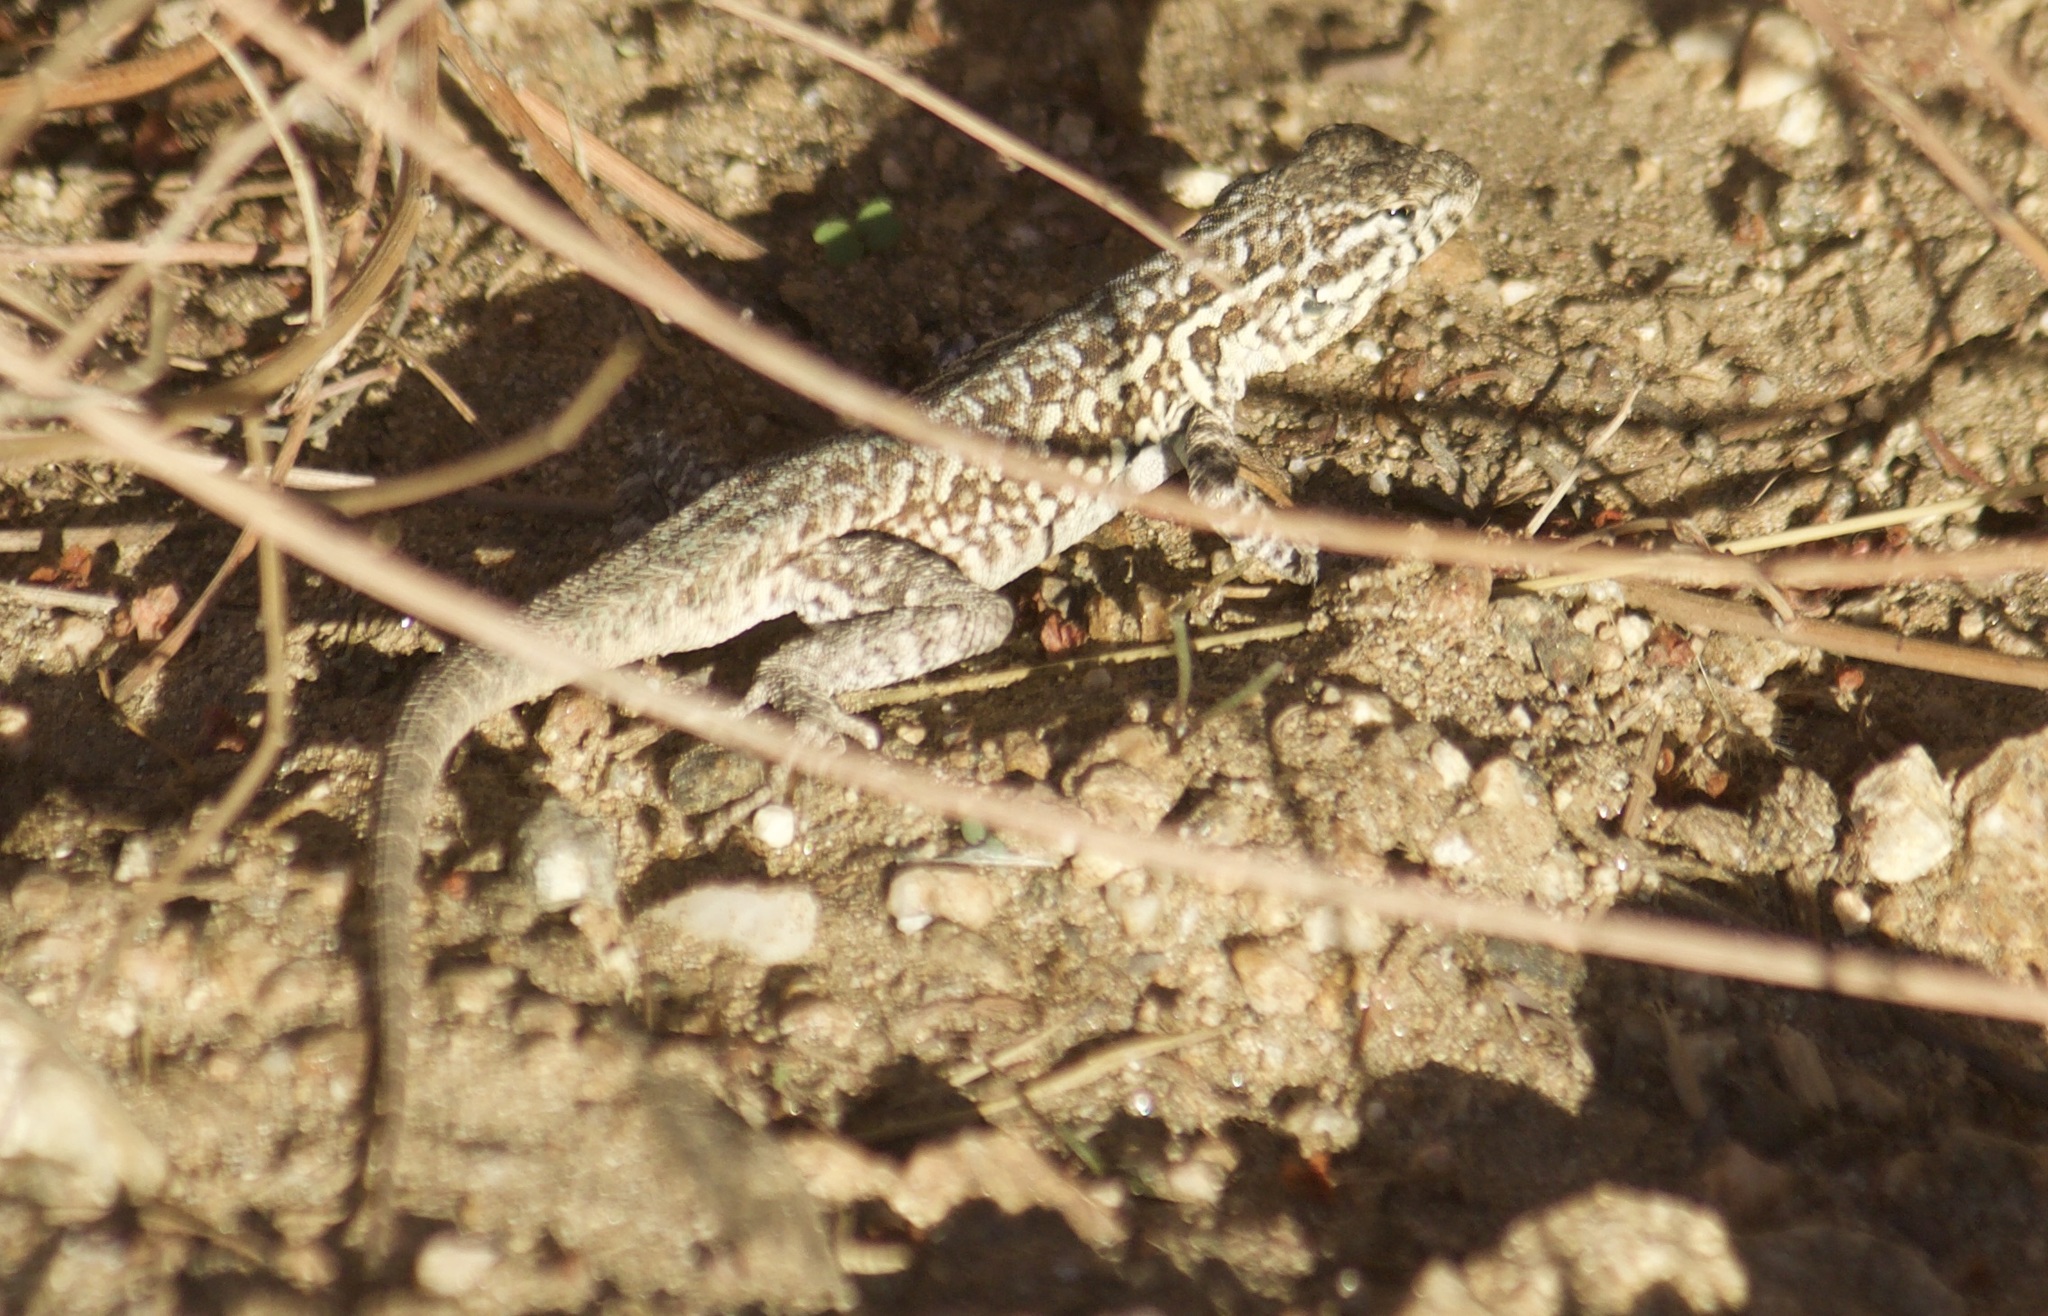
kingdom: Animalia
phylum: Chordata
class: Squamata
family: Phrynosomatidae
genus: Uta
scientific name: Uta stansburiana
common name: Side-blotched lizard
